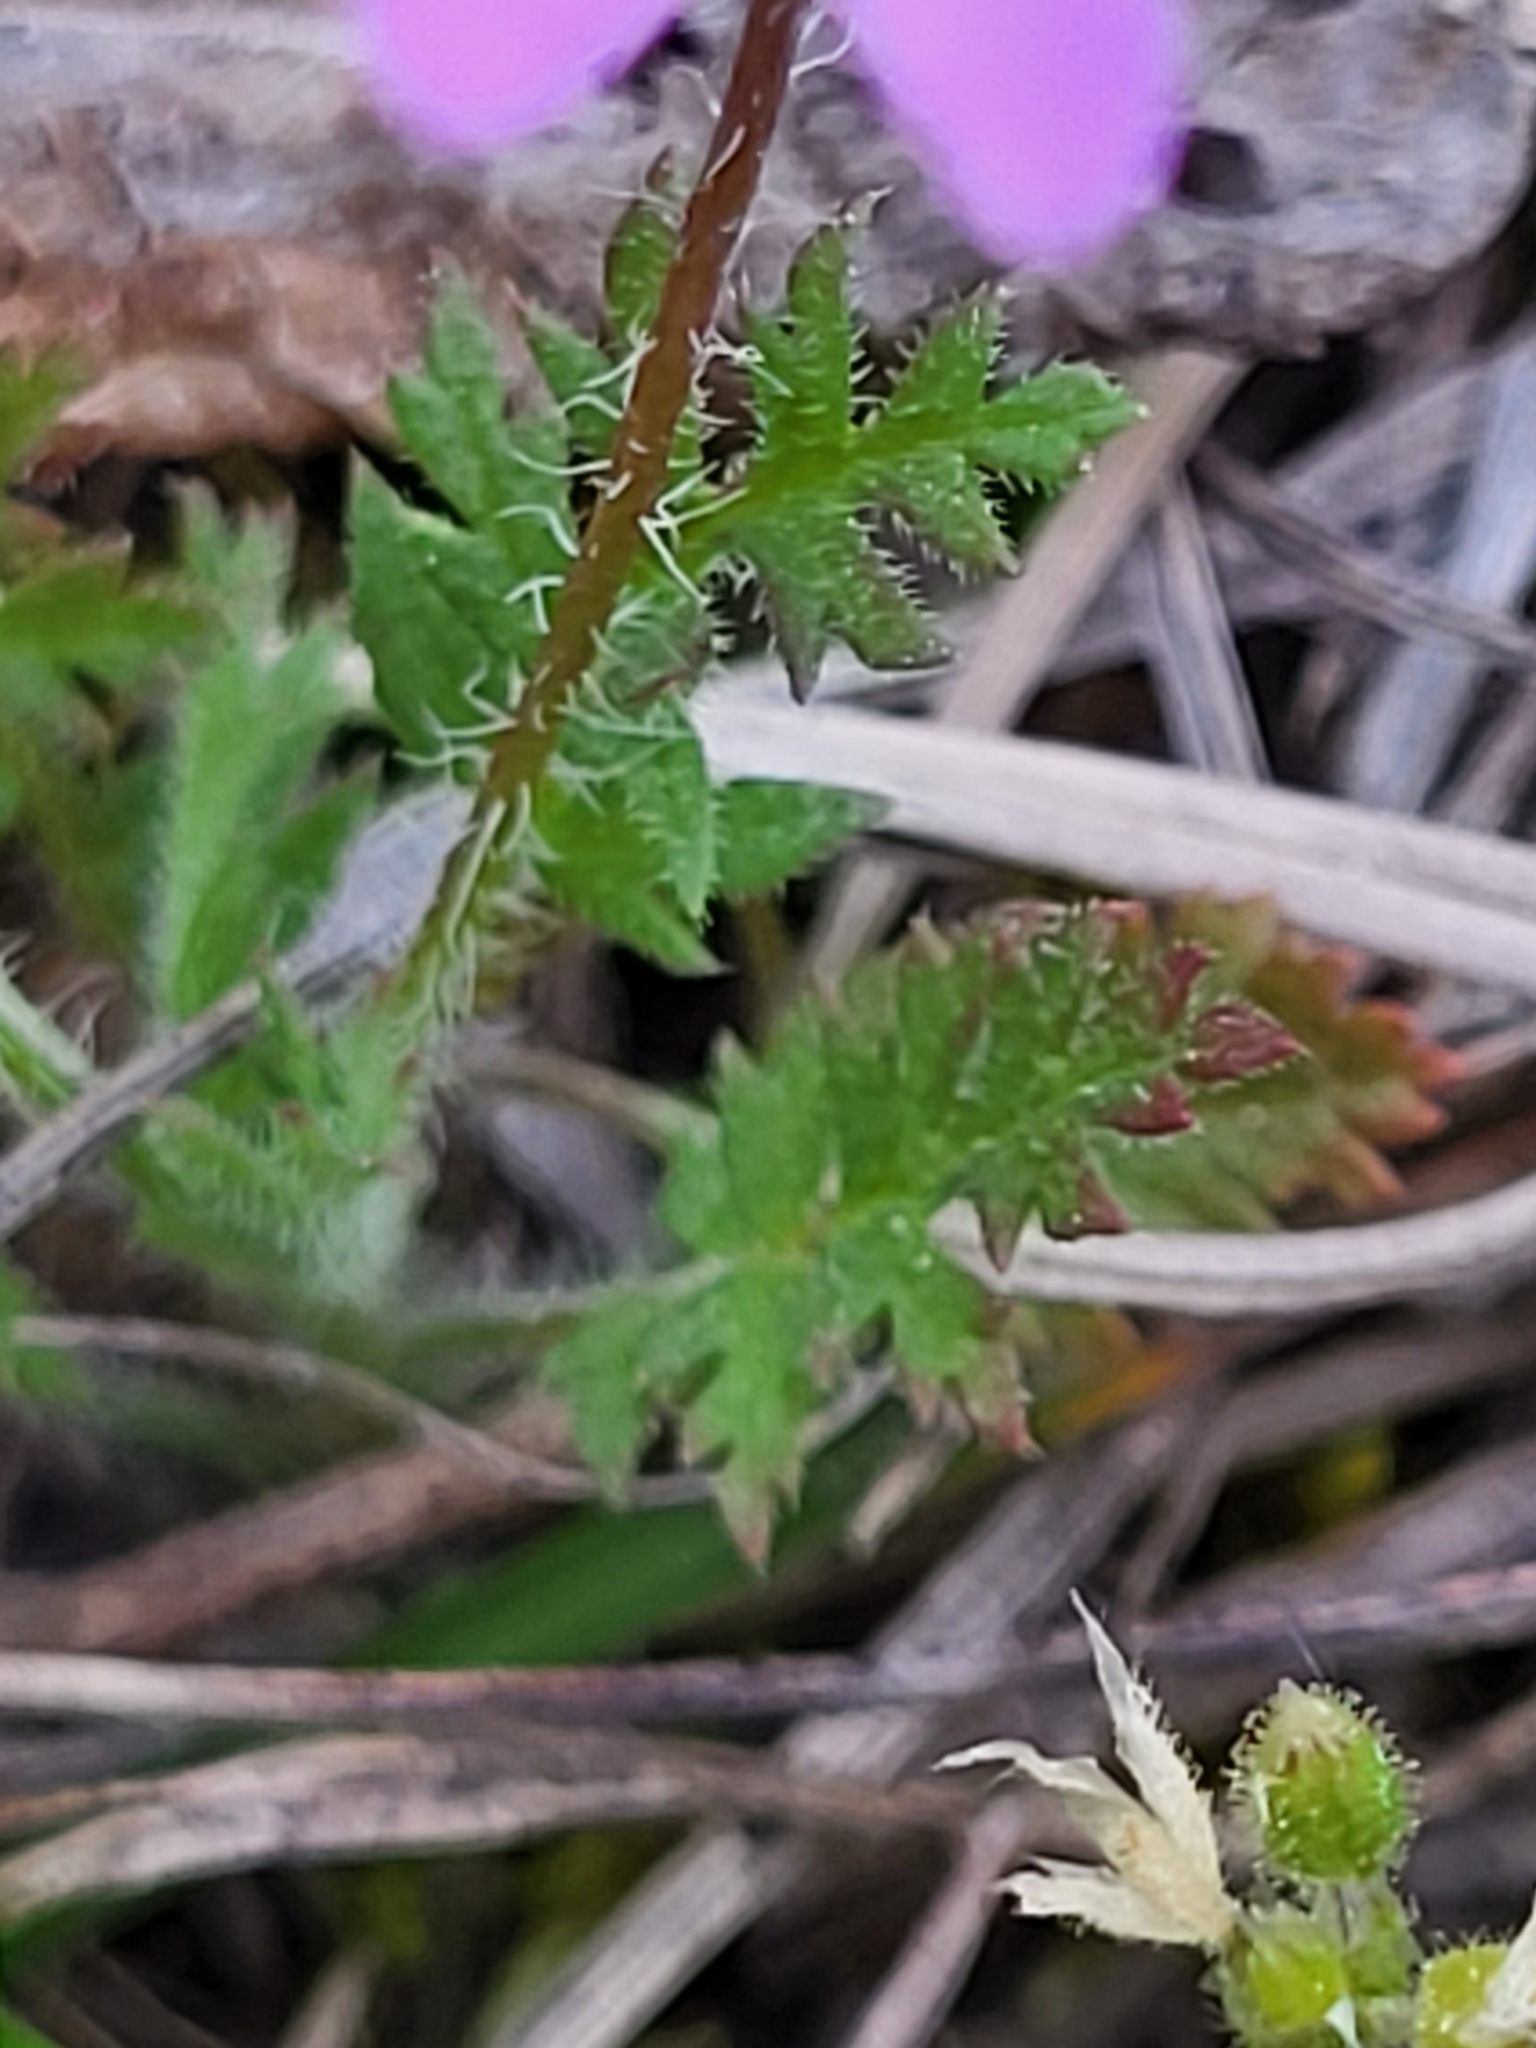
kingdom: Plantae
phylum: Tracheophyta
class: Magnoliopsida
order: Geraniales
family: Geraniaceae
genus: Erodium
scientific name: Erodium cicutarium
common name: Common stork's-bill
